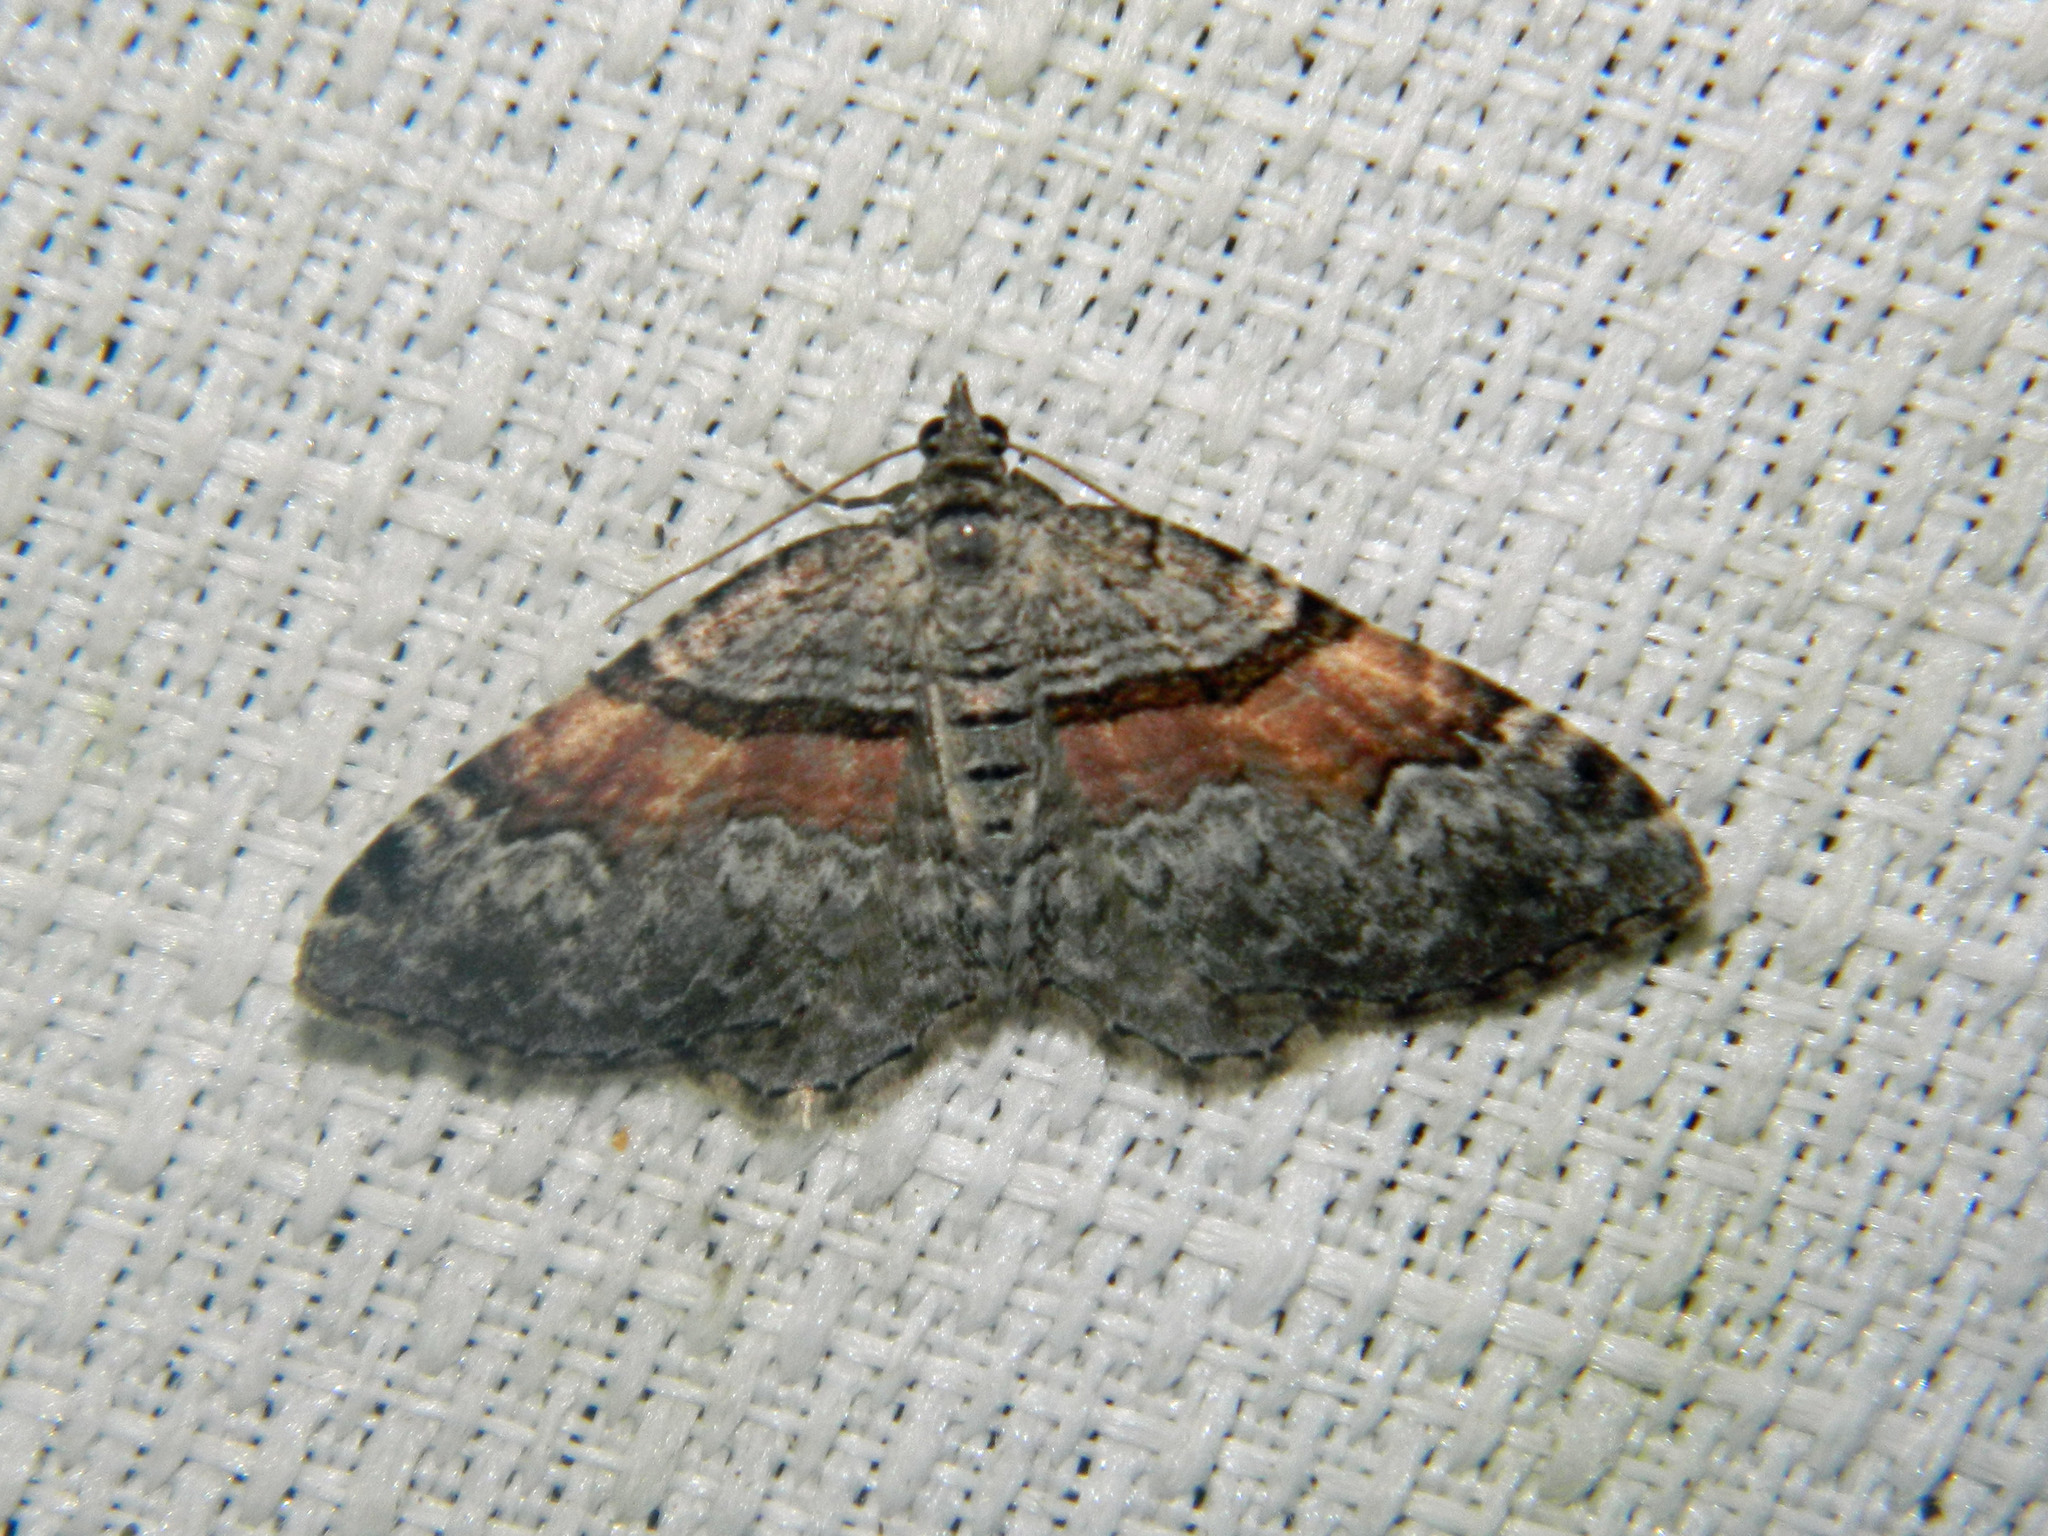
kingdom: Animalia
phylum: Arthropoda
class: Insecta
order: Lepidoptera
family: Geometridae
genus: Xanthorhoe
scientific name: Xanthorhoe packardata
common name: Packard's carpet
